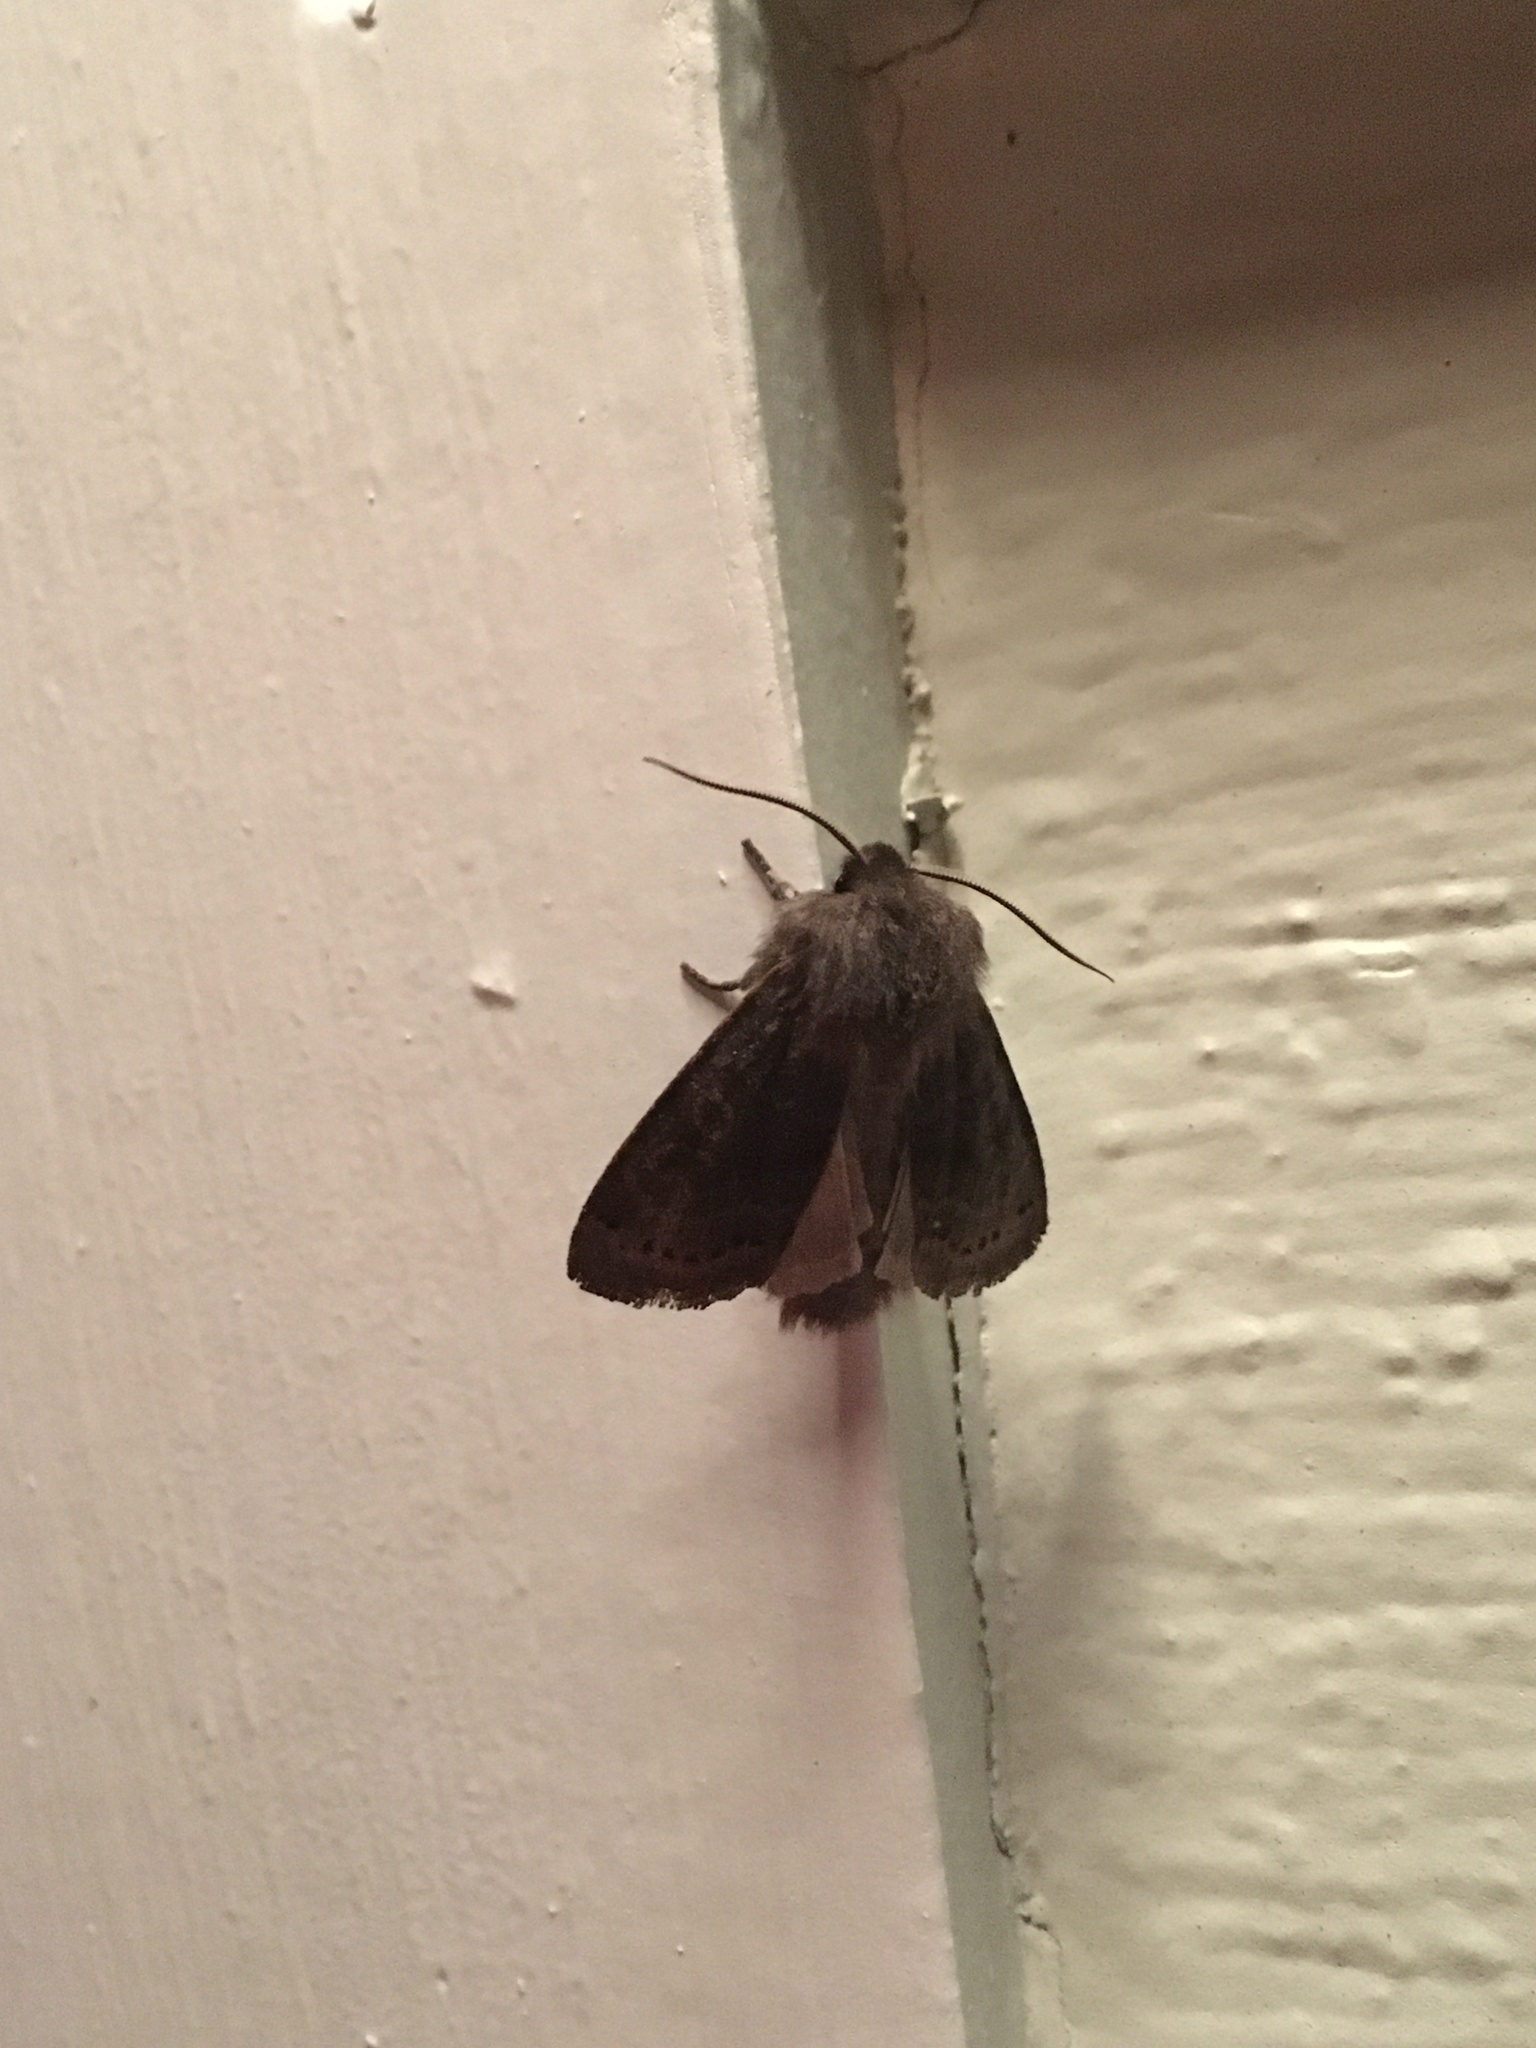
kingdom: Animalia
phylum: Arthropoda
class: Insecta
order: Lepidoptera
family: Noctuidae
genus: Homoglaea
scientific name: Homoglaea hircina
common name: Goat sallow
